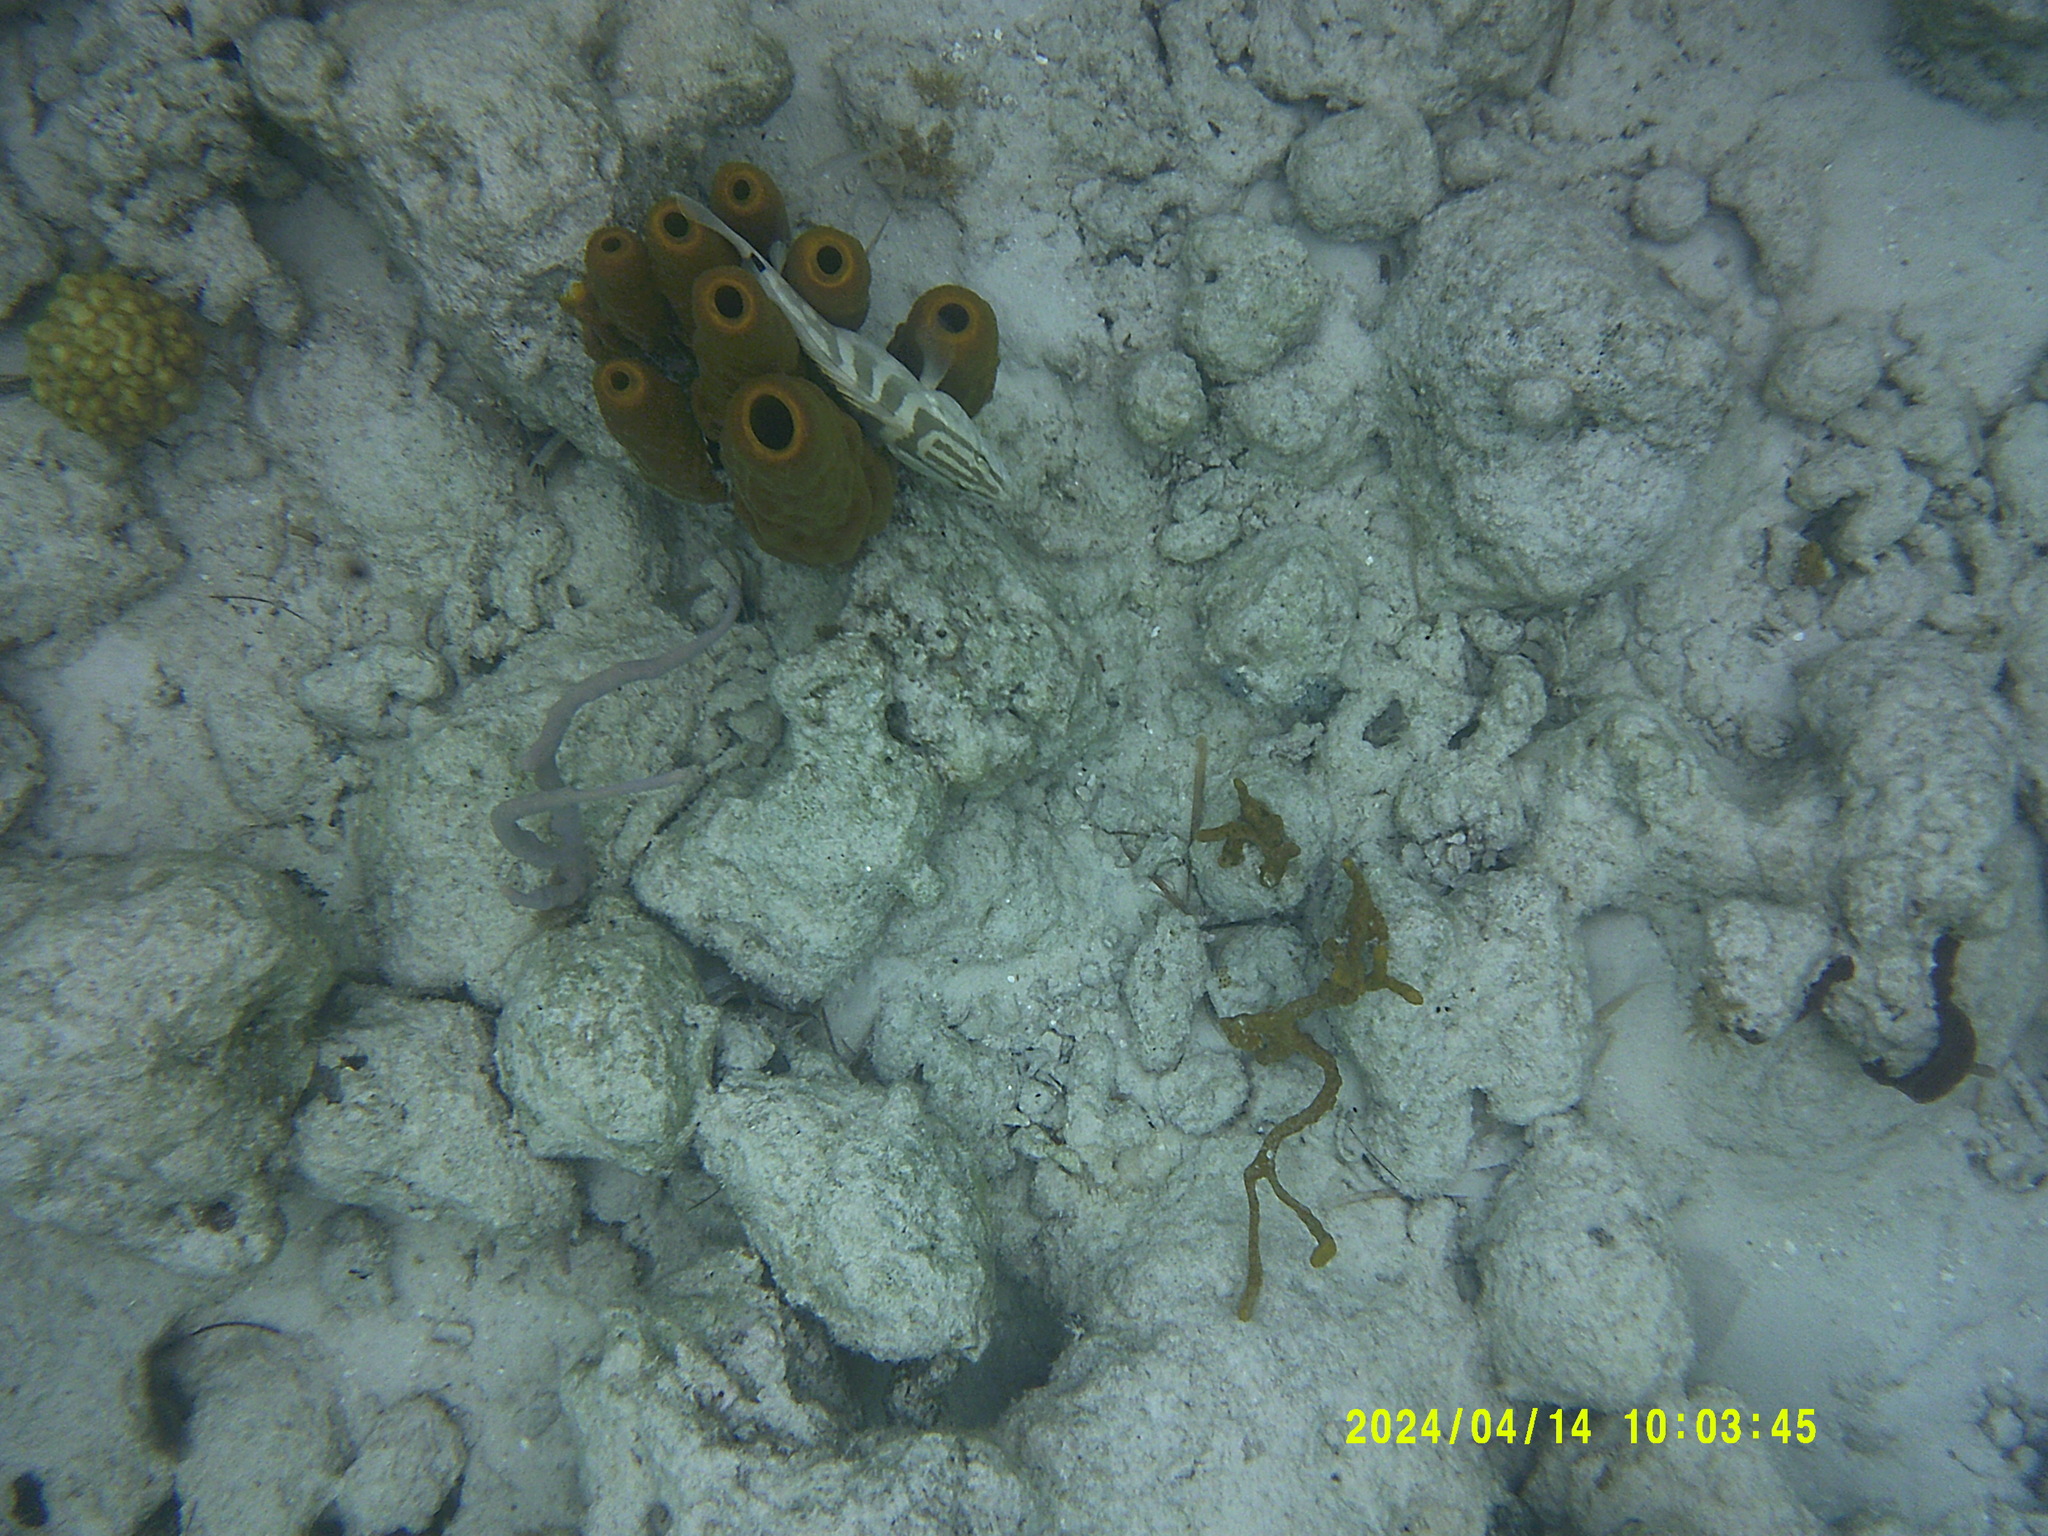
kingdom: Animalia
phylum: Chordata
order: Perciformes
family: Serranidae
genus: Epinephelus
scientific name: Epinephelus striatus
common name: Nassau grouper
